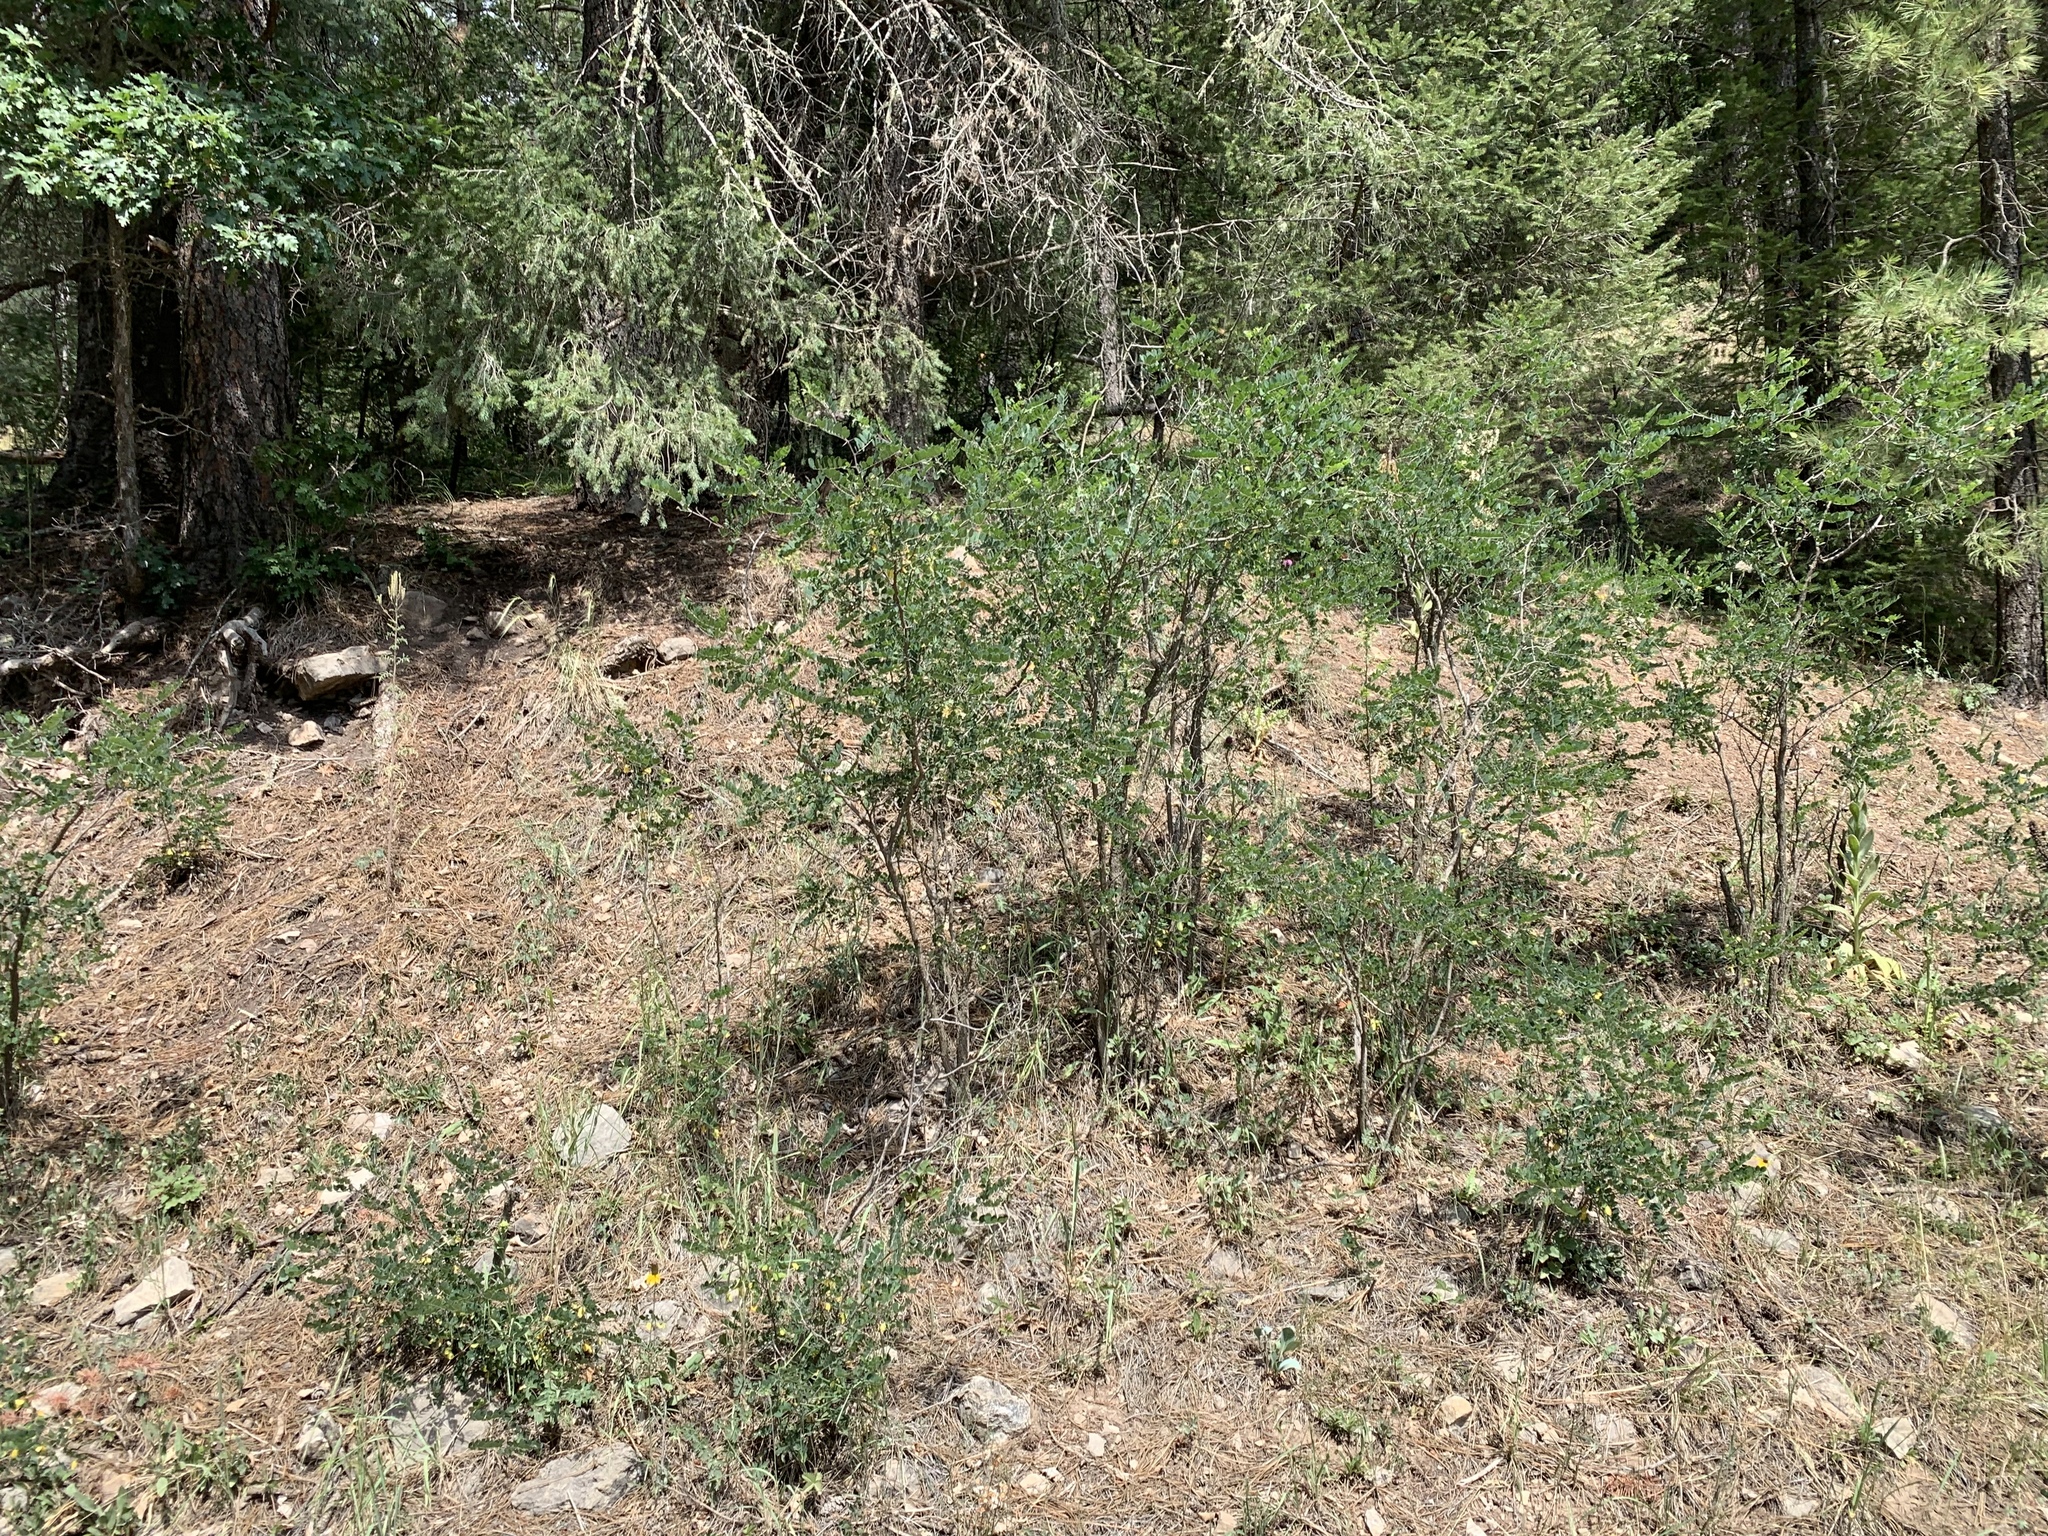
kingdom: Plantae
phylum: Tracheophyta
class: Magnoliopsida
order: Fabales
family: Fabaceae
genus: Robinia
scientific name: Robinia neomexicana
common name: New mexico locust
